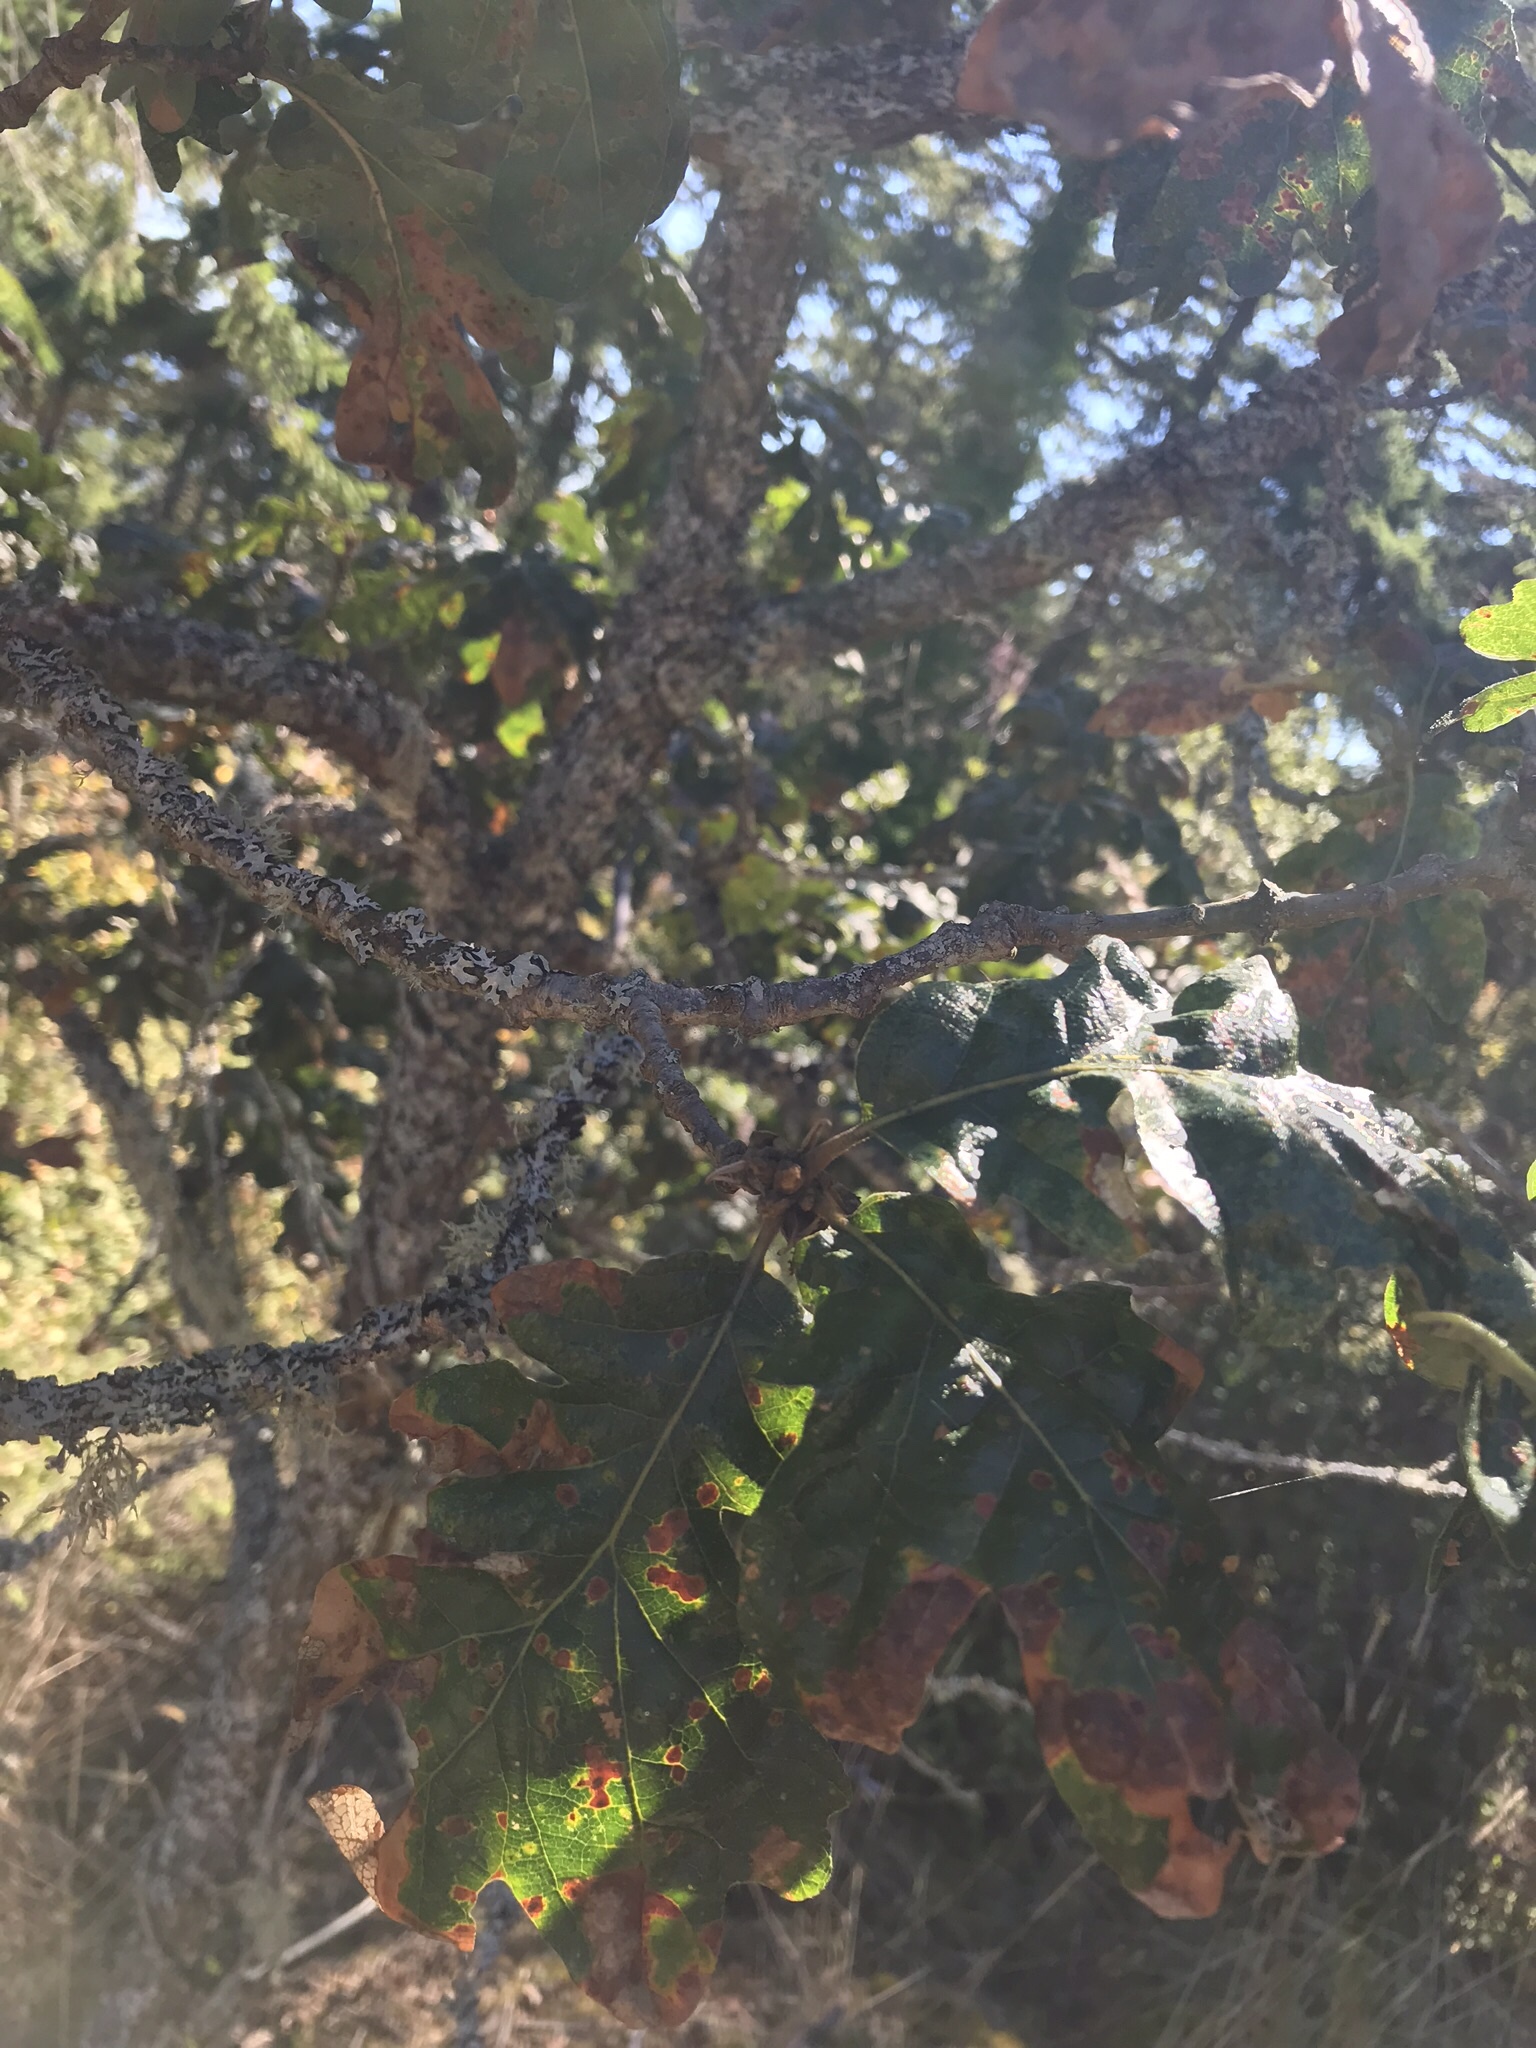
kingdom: Plantae
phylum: Tracheophyta
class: Magnoliopsida
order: Fagales
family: Fagaceae
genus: Quercus
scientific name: Quercus garryana
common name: Garry oak
